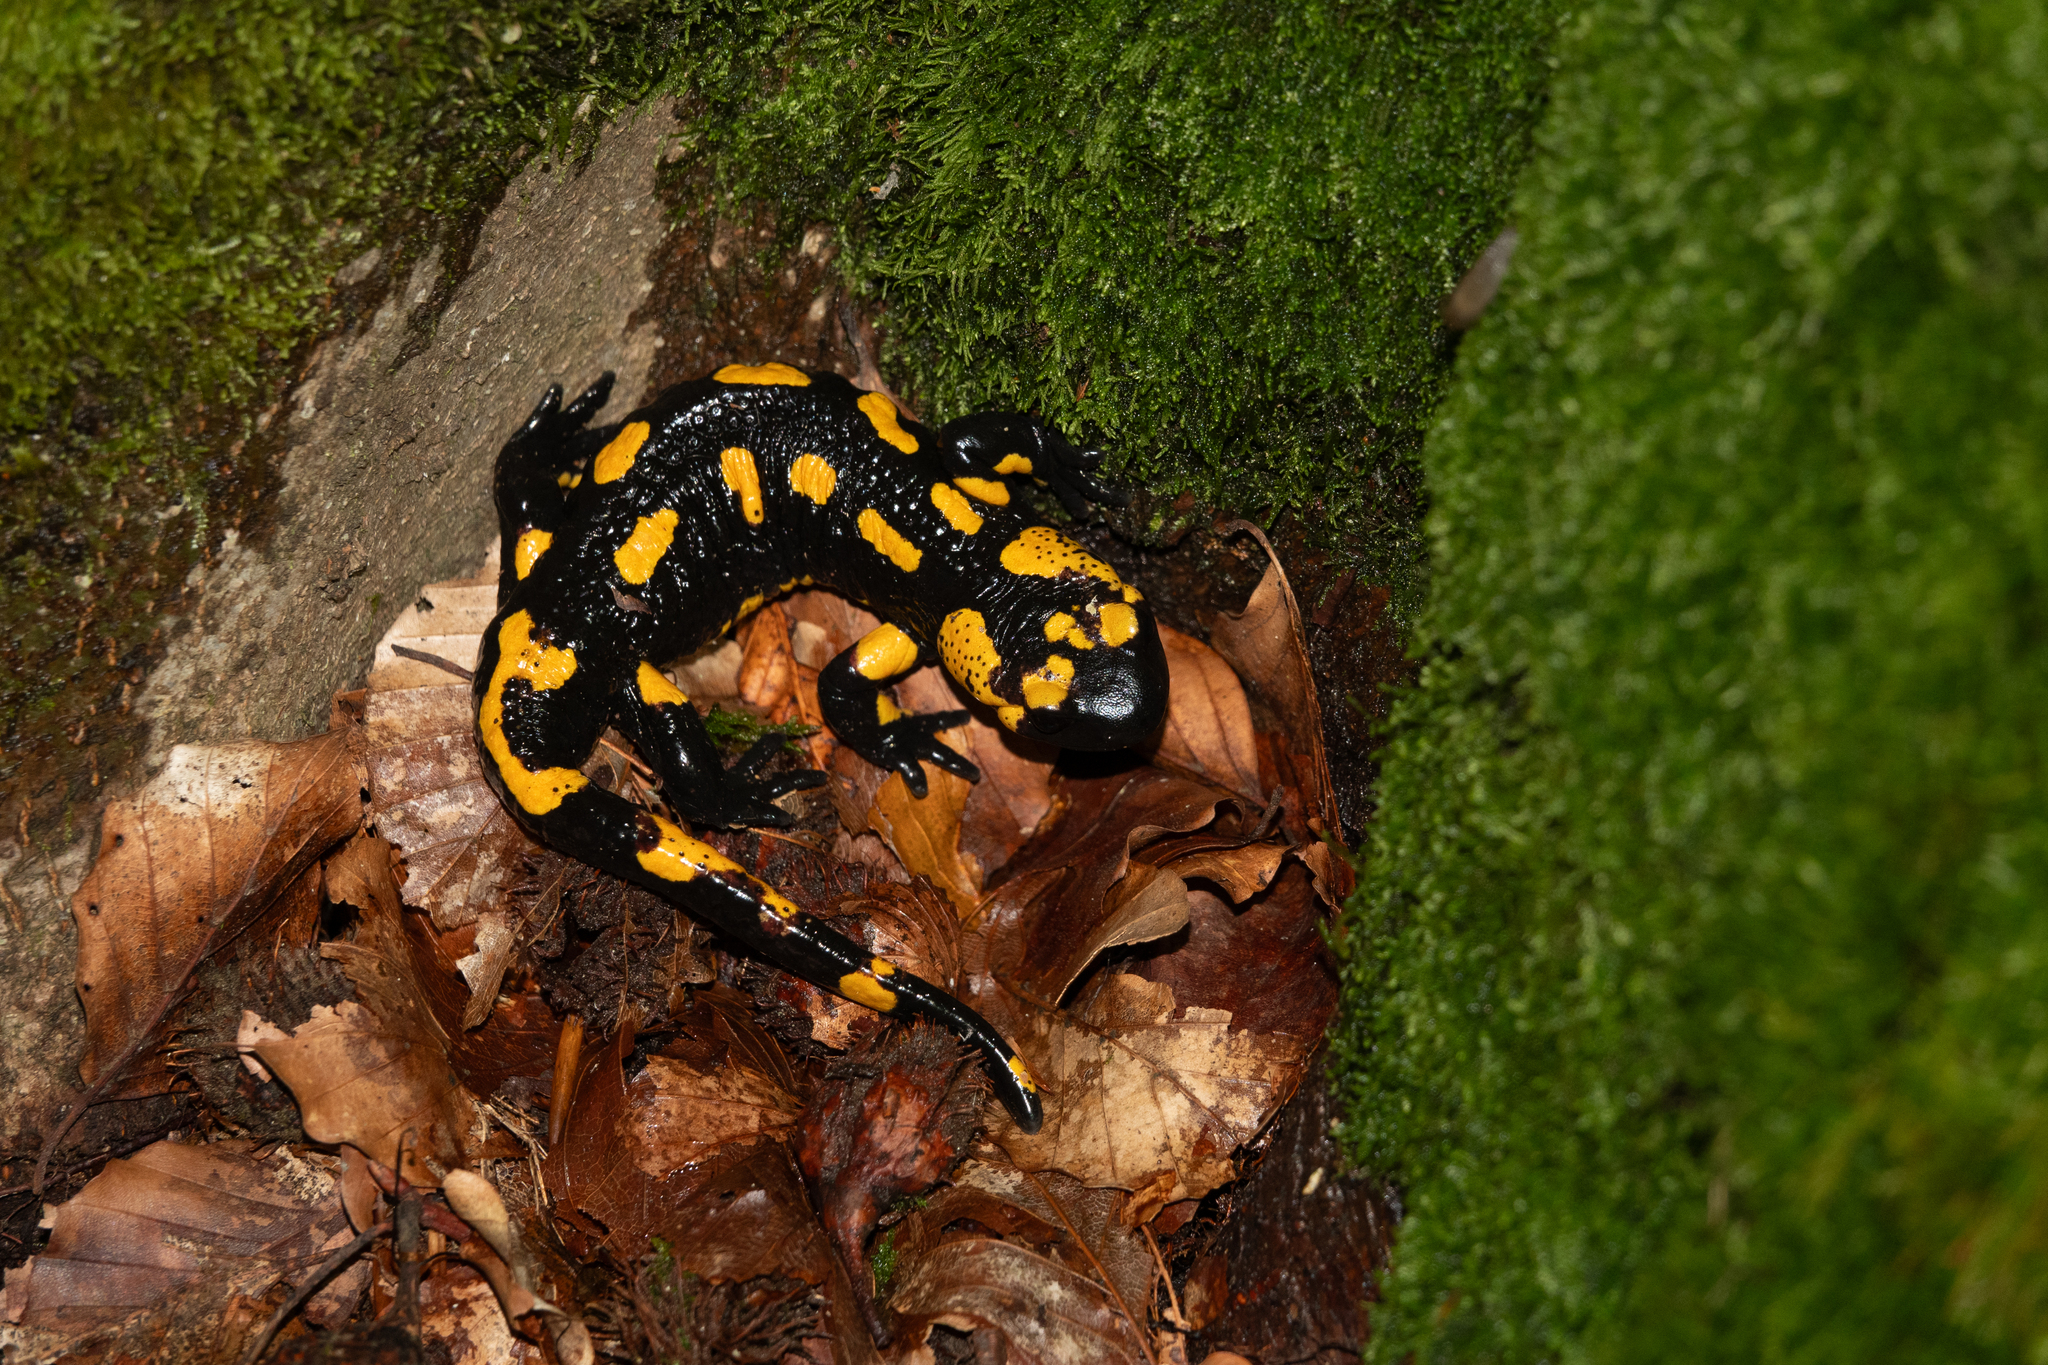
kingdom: Animalia
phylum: Chordata
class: Amphibia
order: Caudata
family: Salamandridae
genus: Salamandra
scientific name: Salamandra salamandra
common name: Fire salamander
